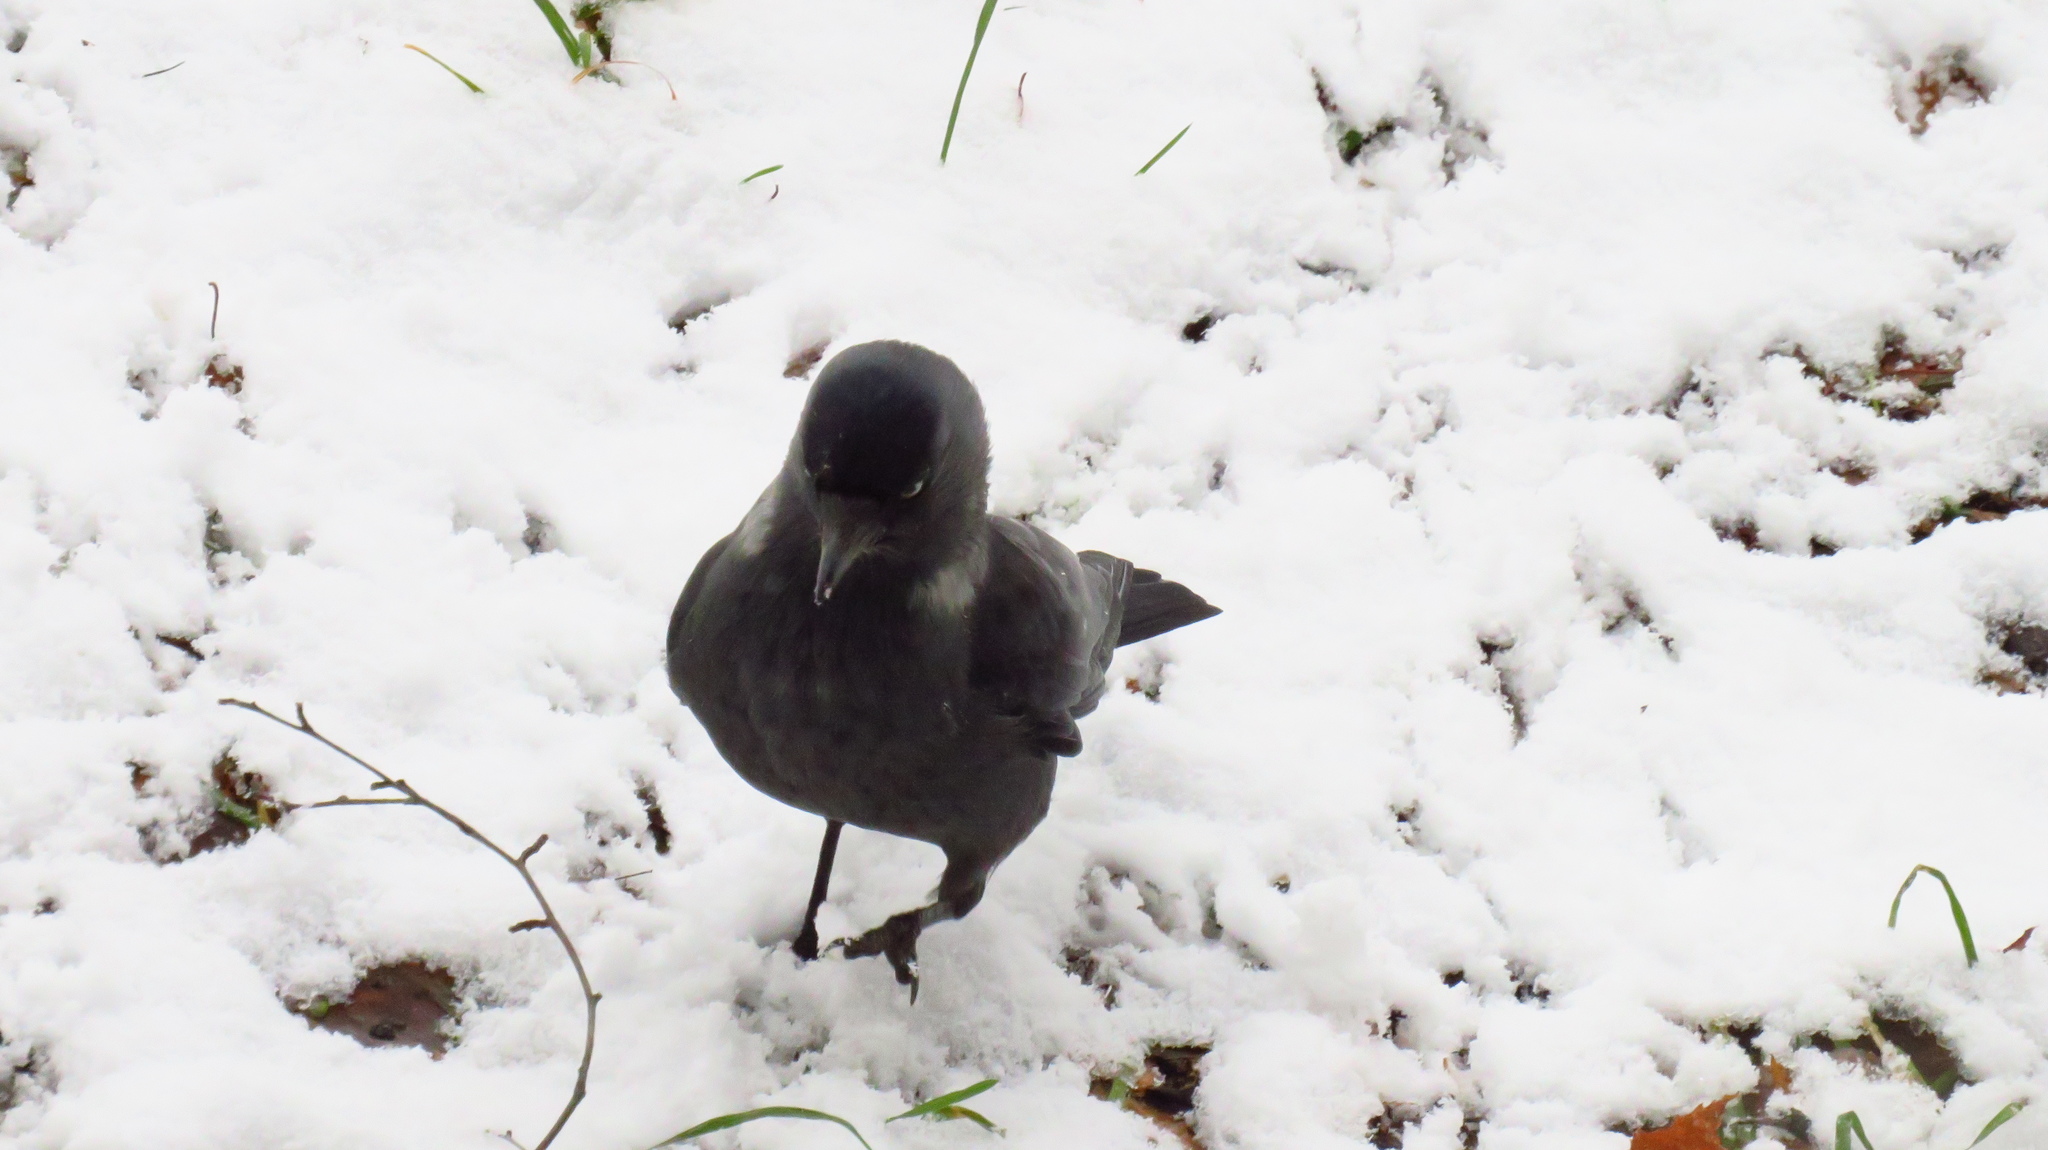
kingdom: Animalia
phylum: Chordata
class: Aves
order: Passeriformes
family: Corvidae
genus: Coloeus
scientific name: Coloeus monedula
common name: Western jackdaw
